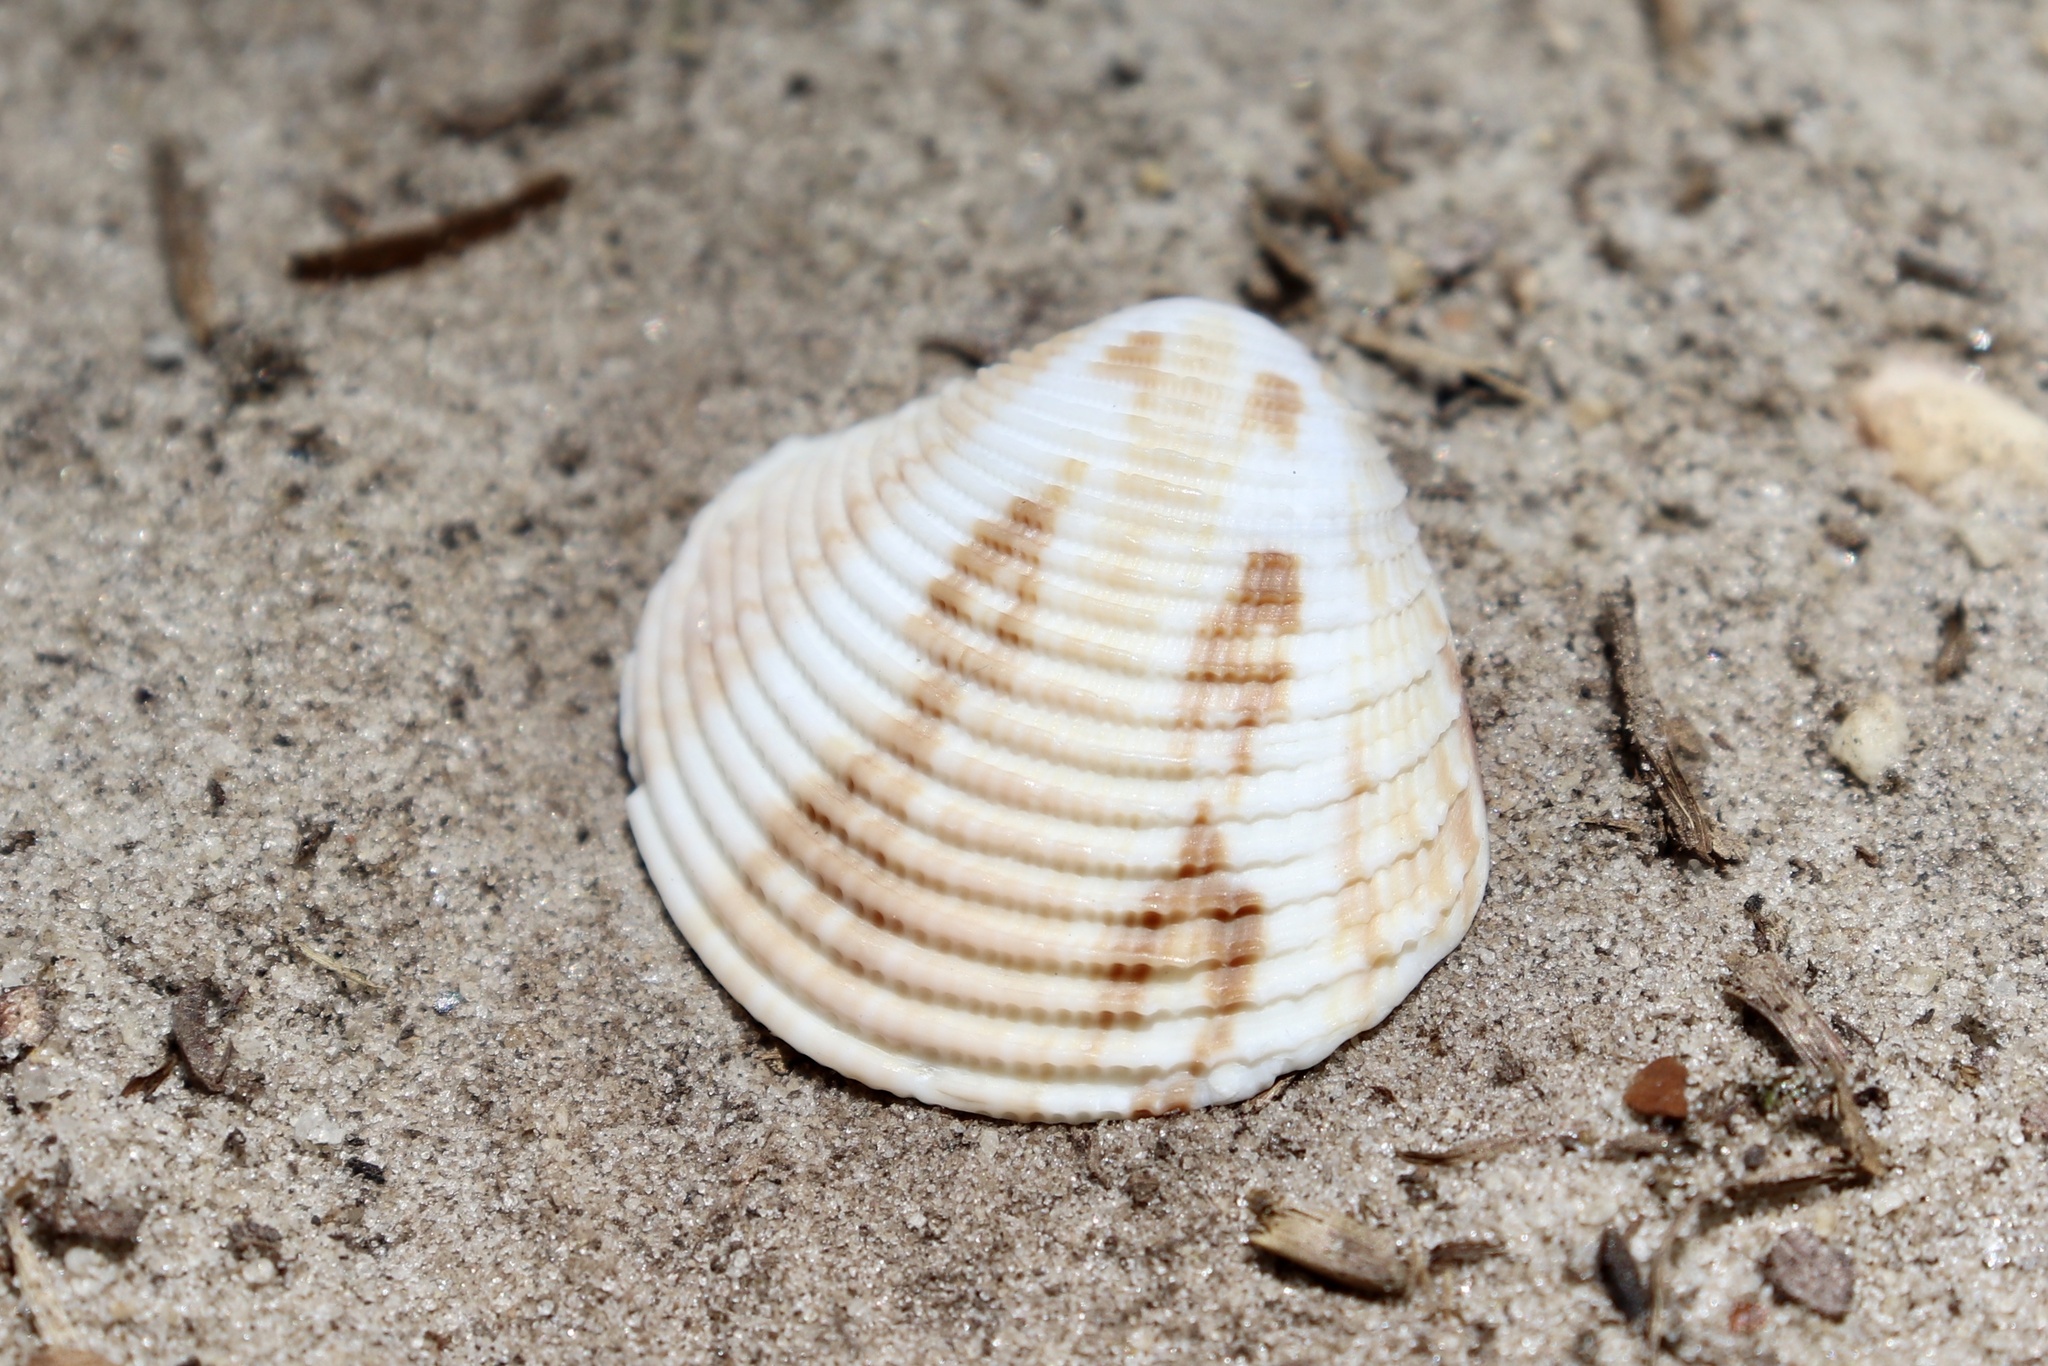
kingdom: Animalia
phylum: Mollusca
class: Bivalvia
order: Venerida
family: Veneridae
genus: Chionopsis
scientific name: Chionopsis intapurpurea
